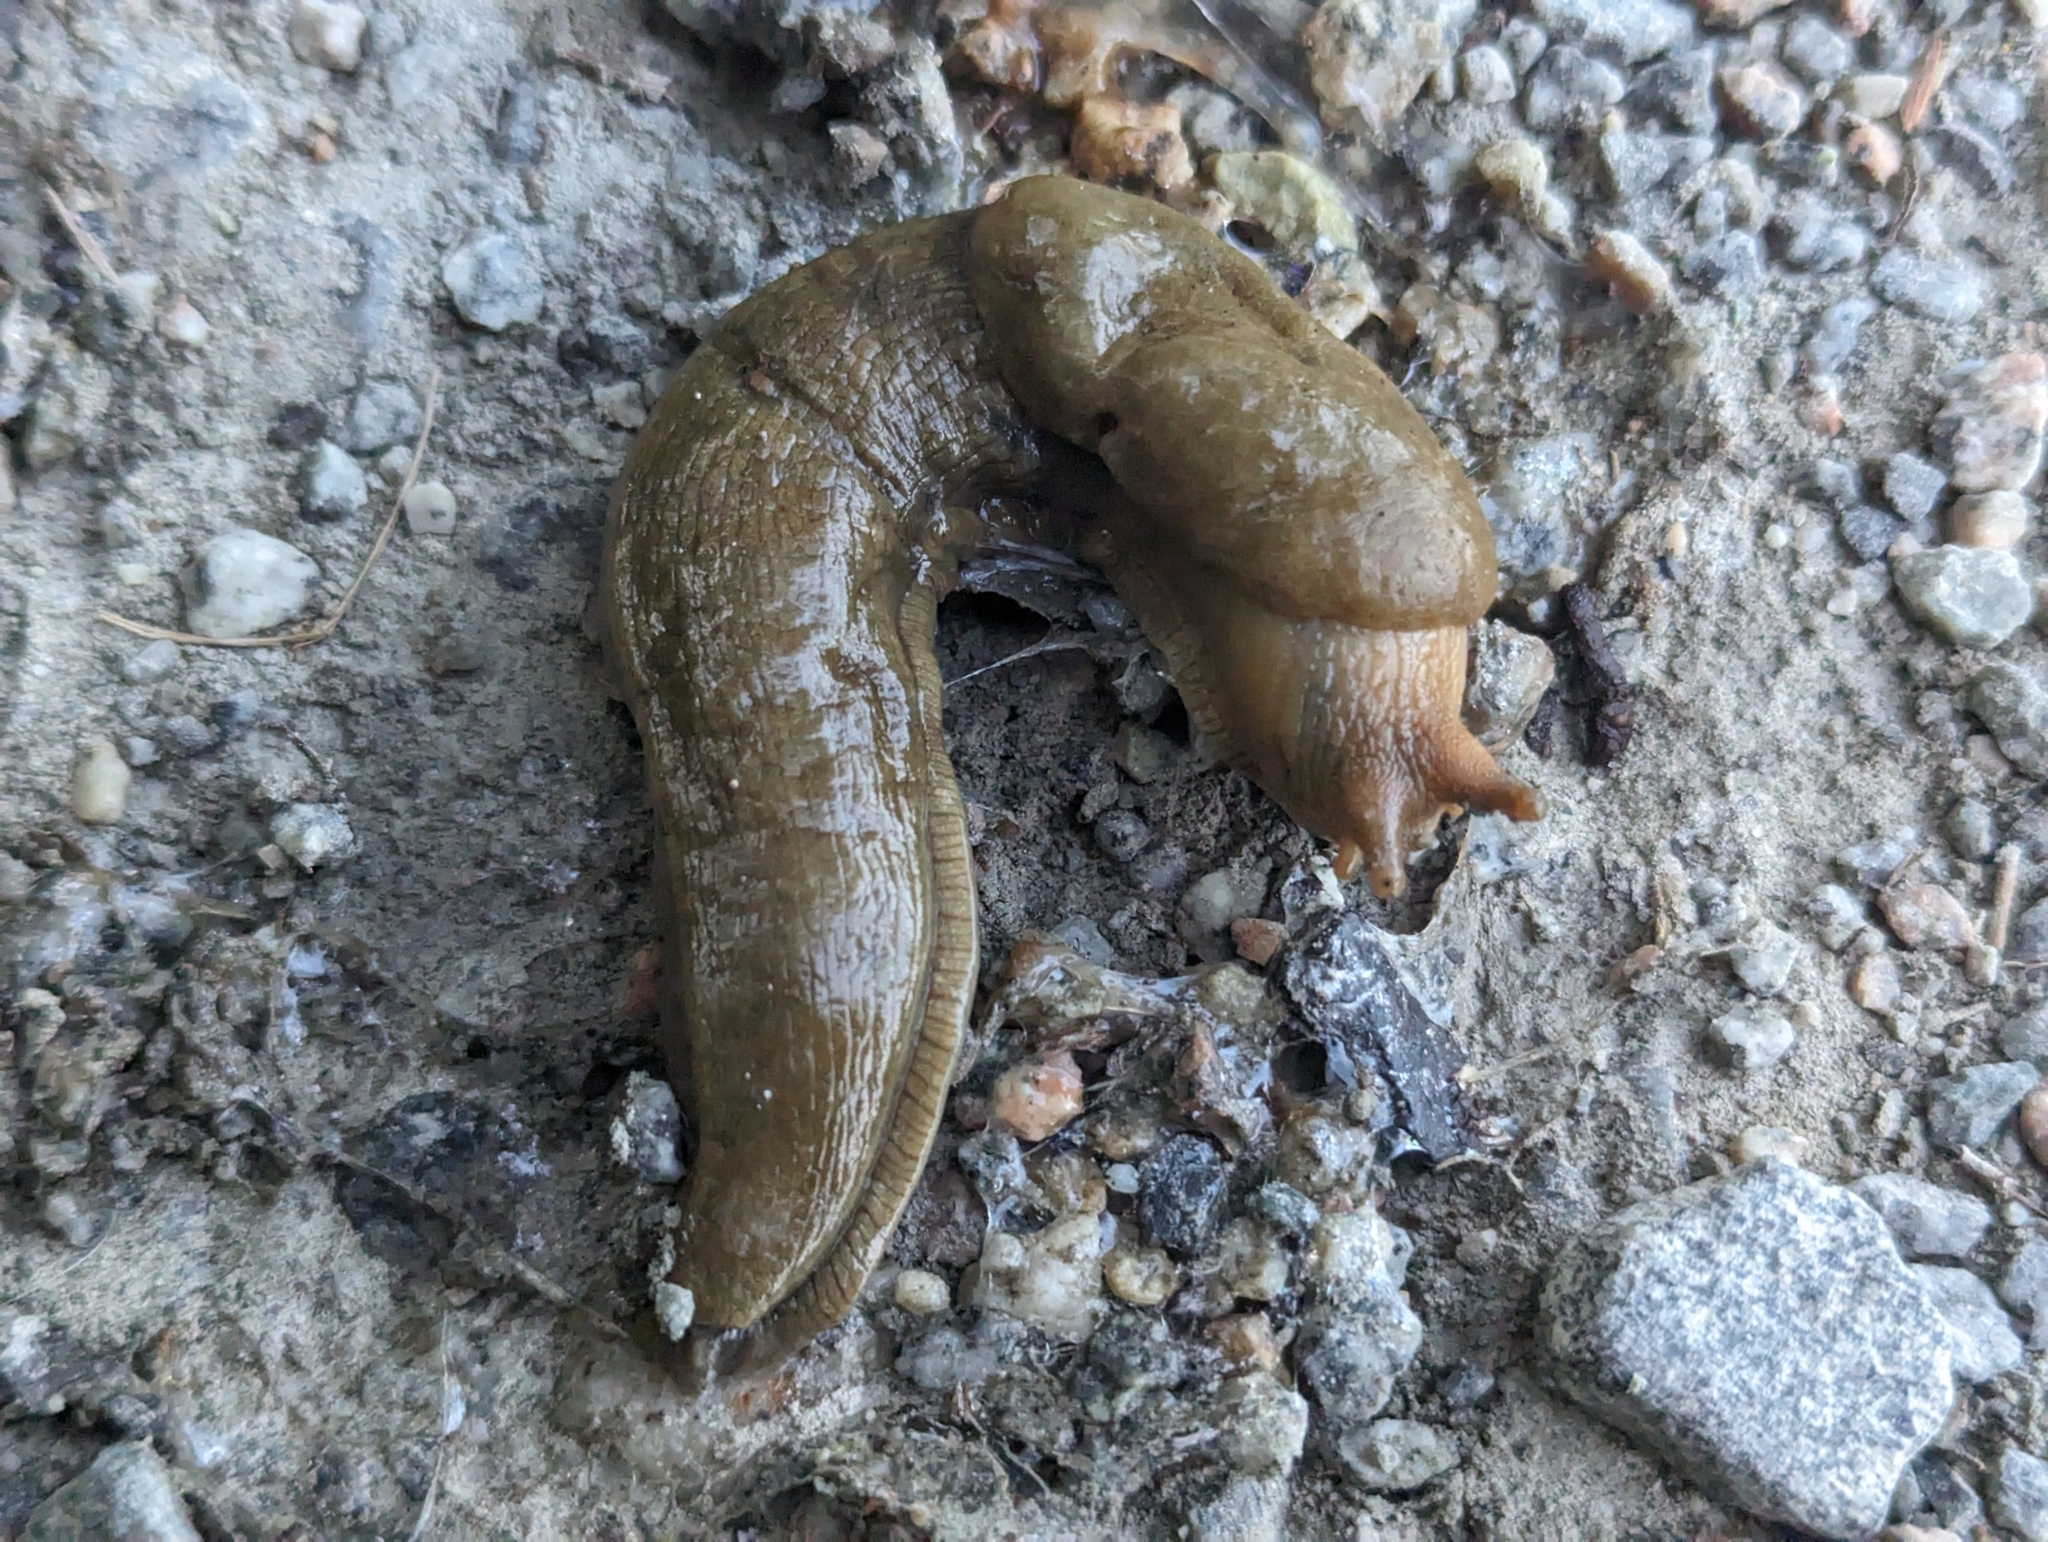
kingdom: Animalia
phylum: Mollusca
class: Gastropoda
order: Stylommatophora
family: Ariolimacidae
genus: Ariolimax
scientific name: Ariolimax columbianus
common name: Pacific banana slug
